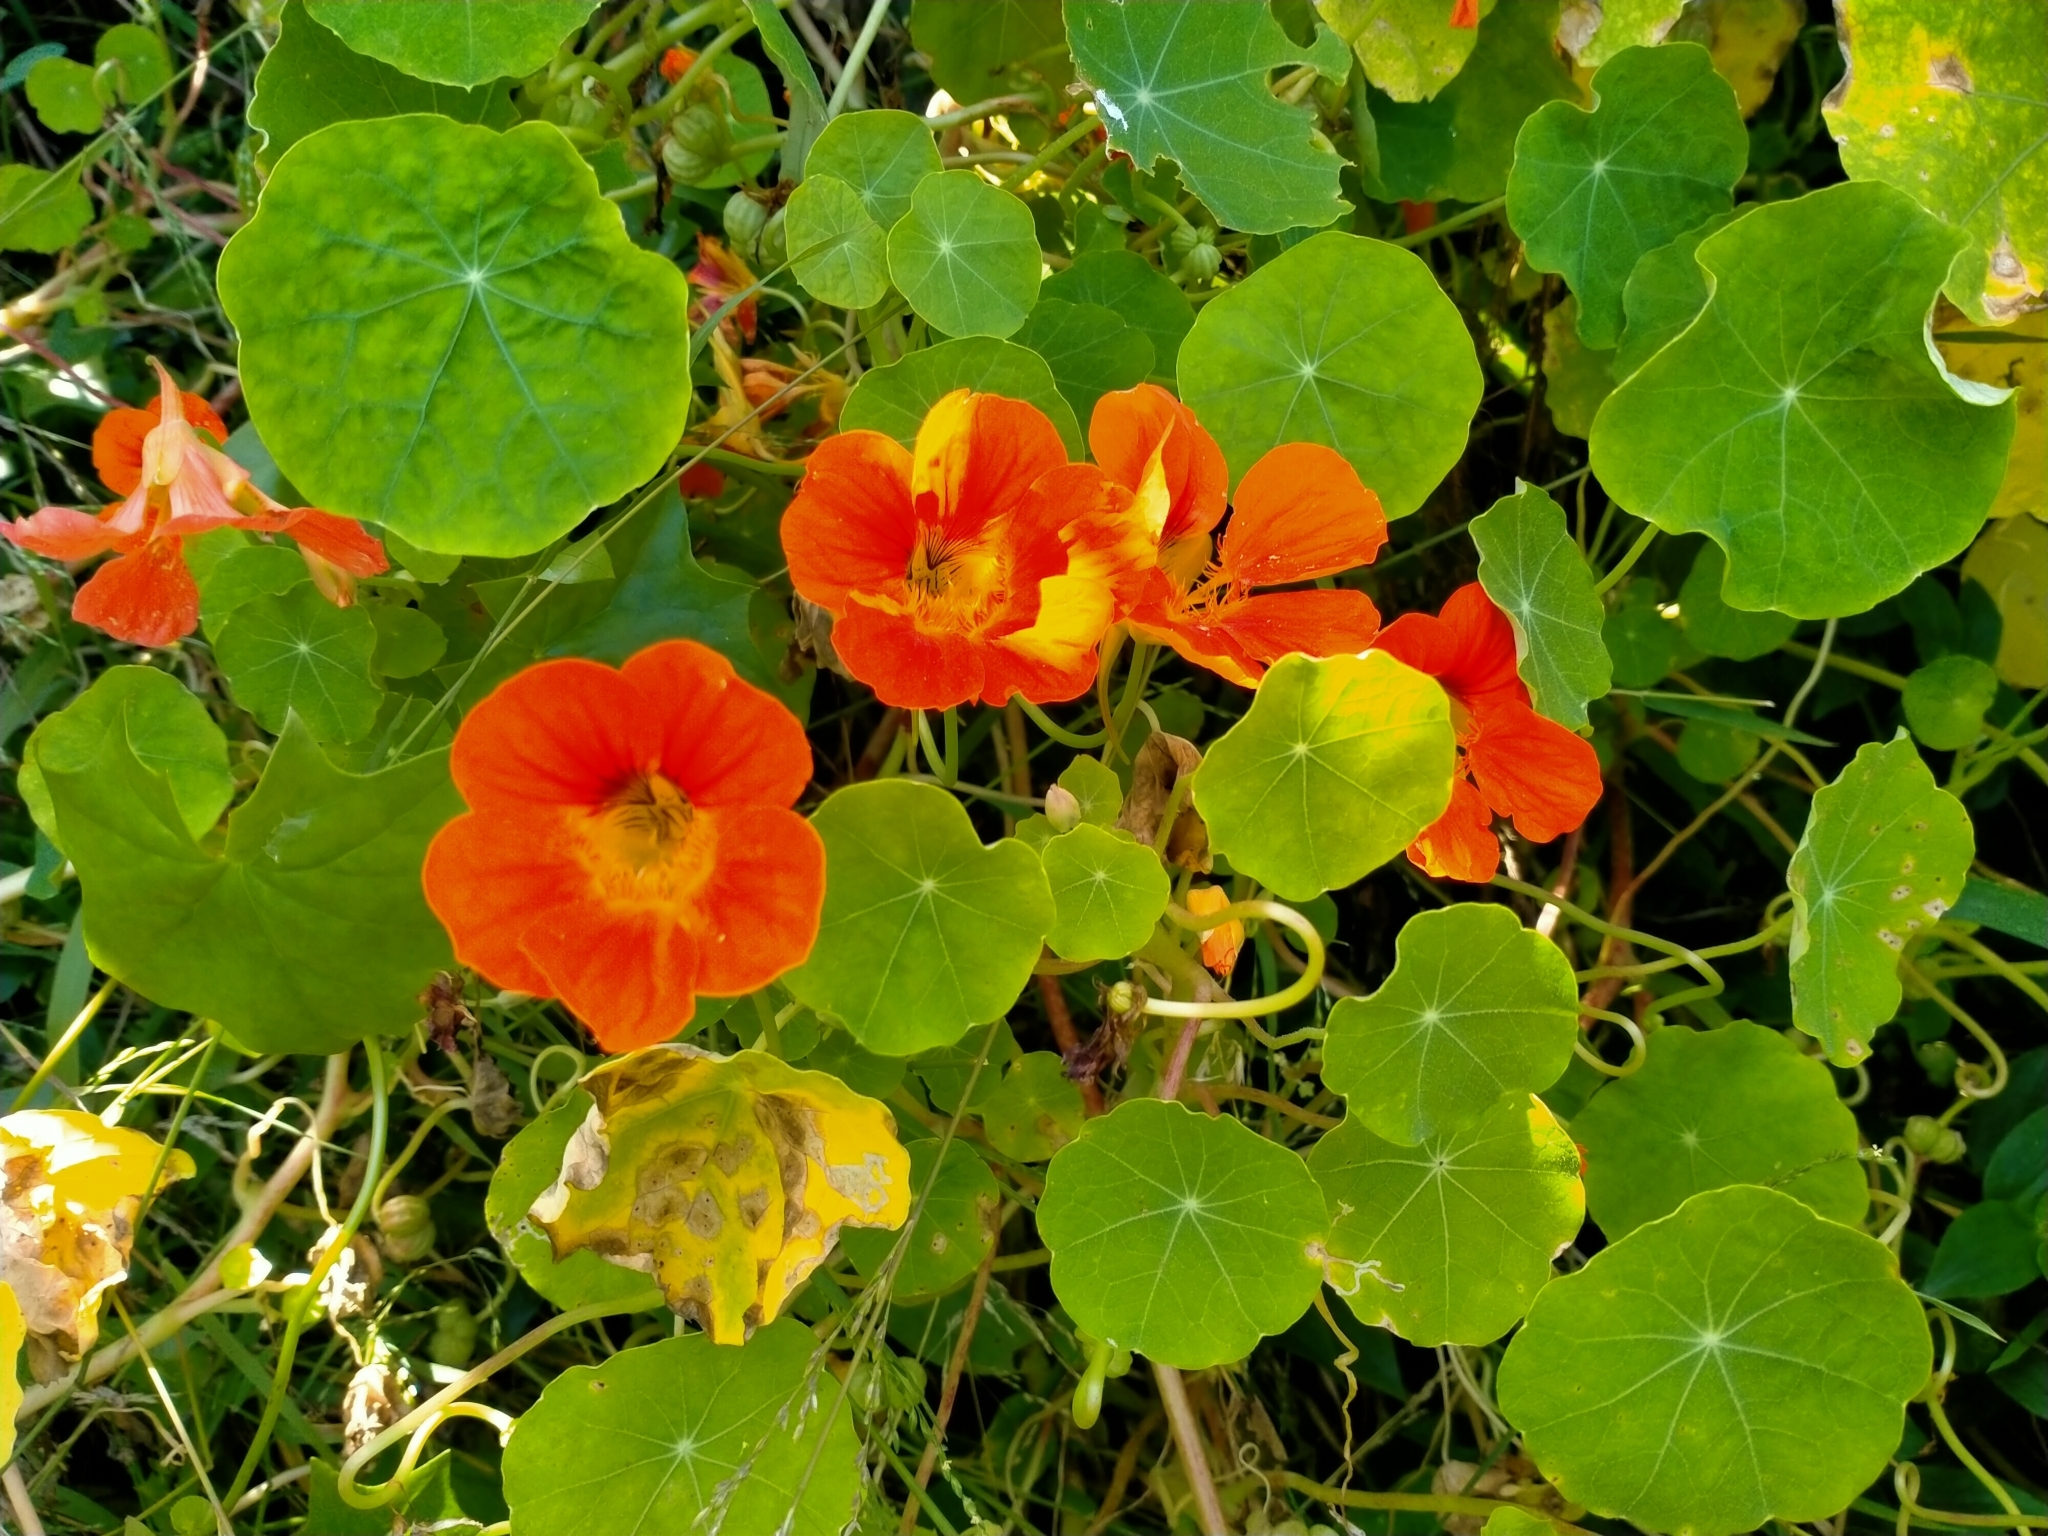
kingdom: Plantae
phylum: Tracheophyta
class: Magnoliopsida
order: Brassicales
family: Tropaeolaceae
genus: Tropaeolum
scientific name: Tropaeolum majus
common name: Nasturtium
